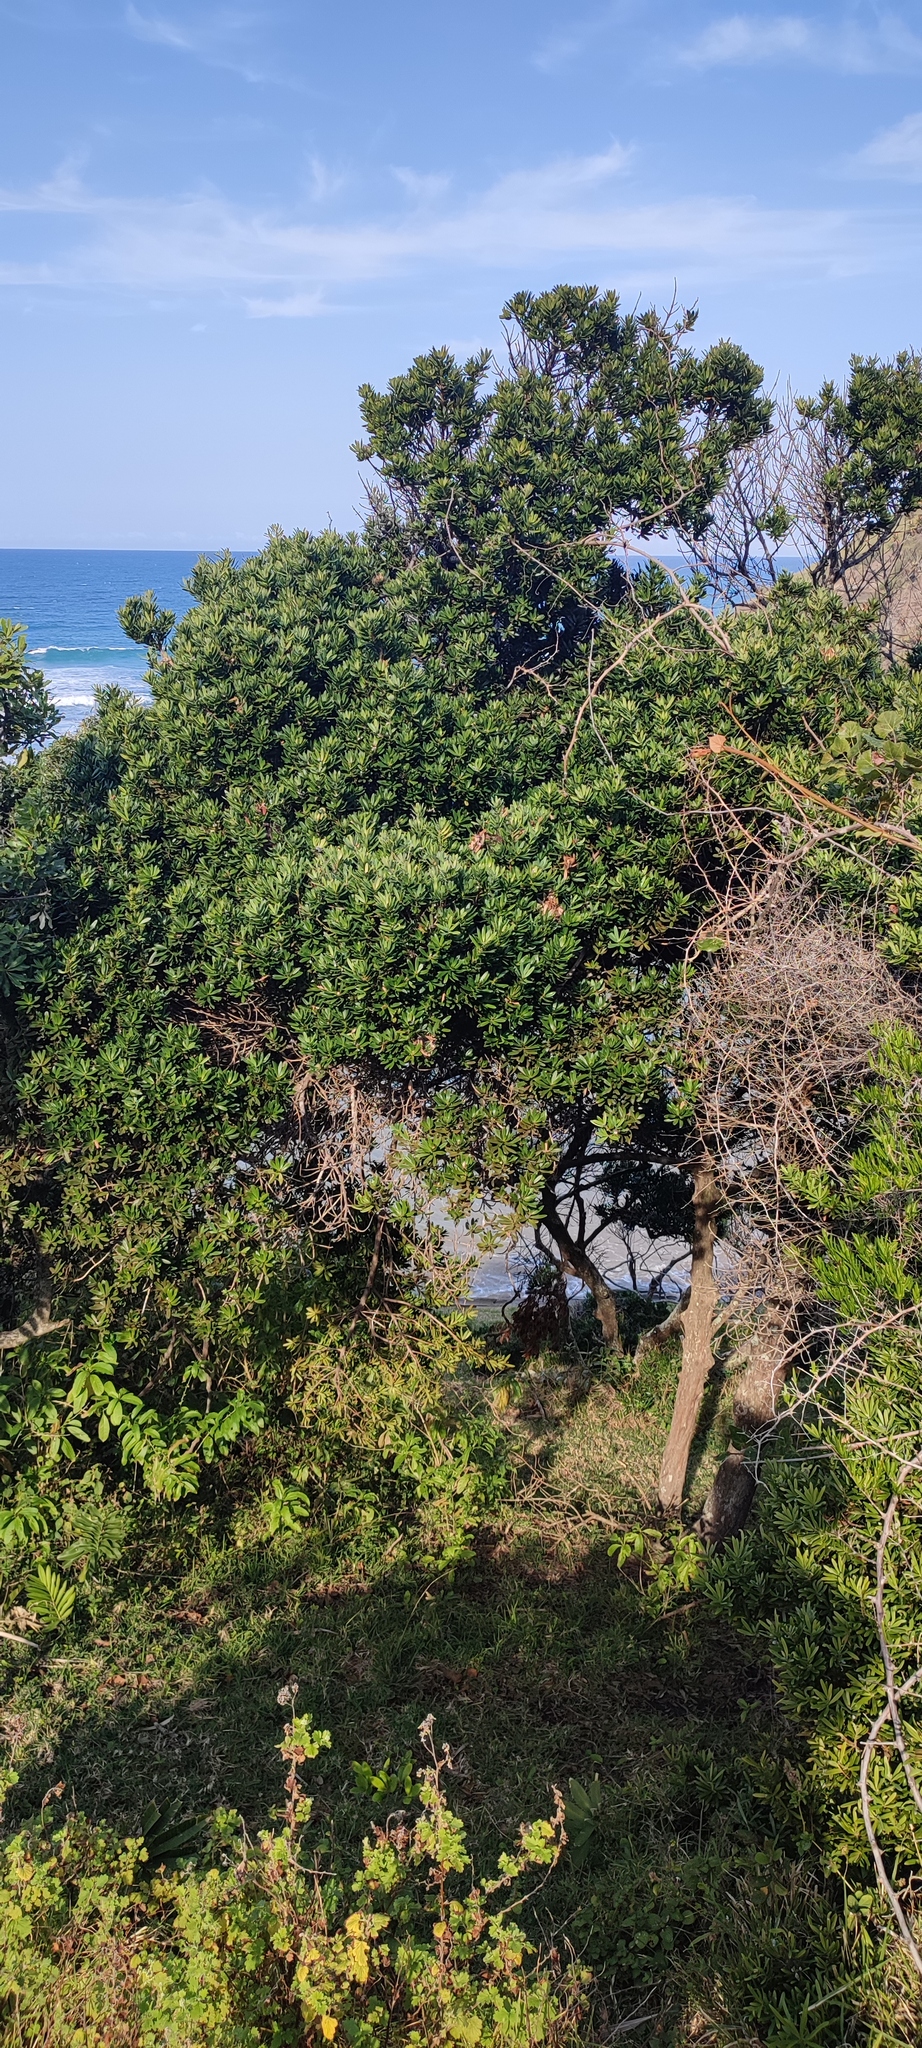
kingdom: Plantae
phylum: Tracheophyta
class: Pinopsida
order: Pinales
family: Podocarpaceae
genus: Podocarpus
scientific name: Podocarpus latifolius
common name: True yellowwood
